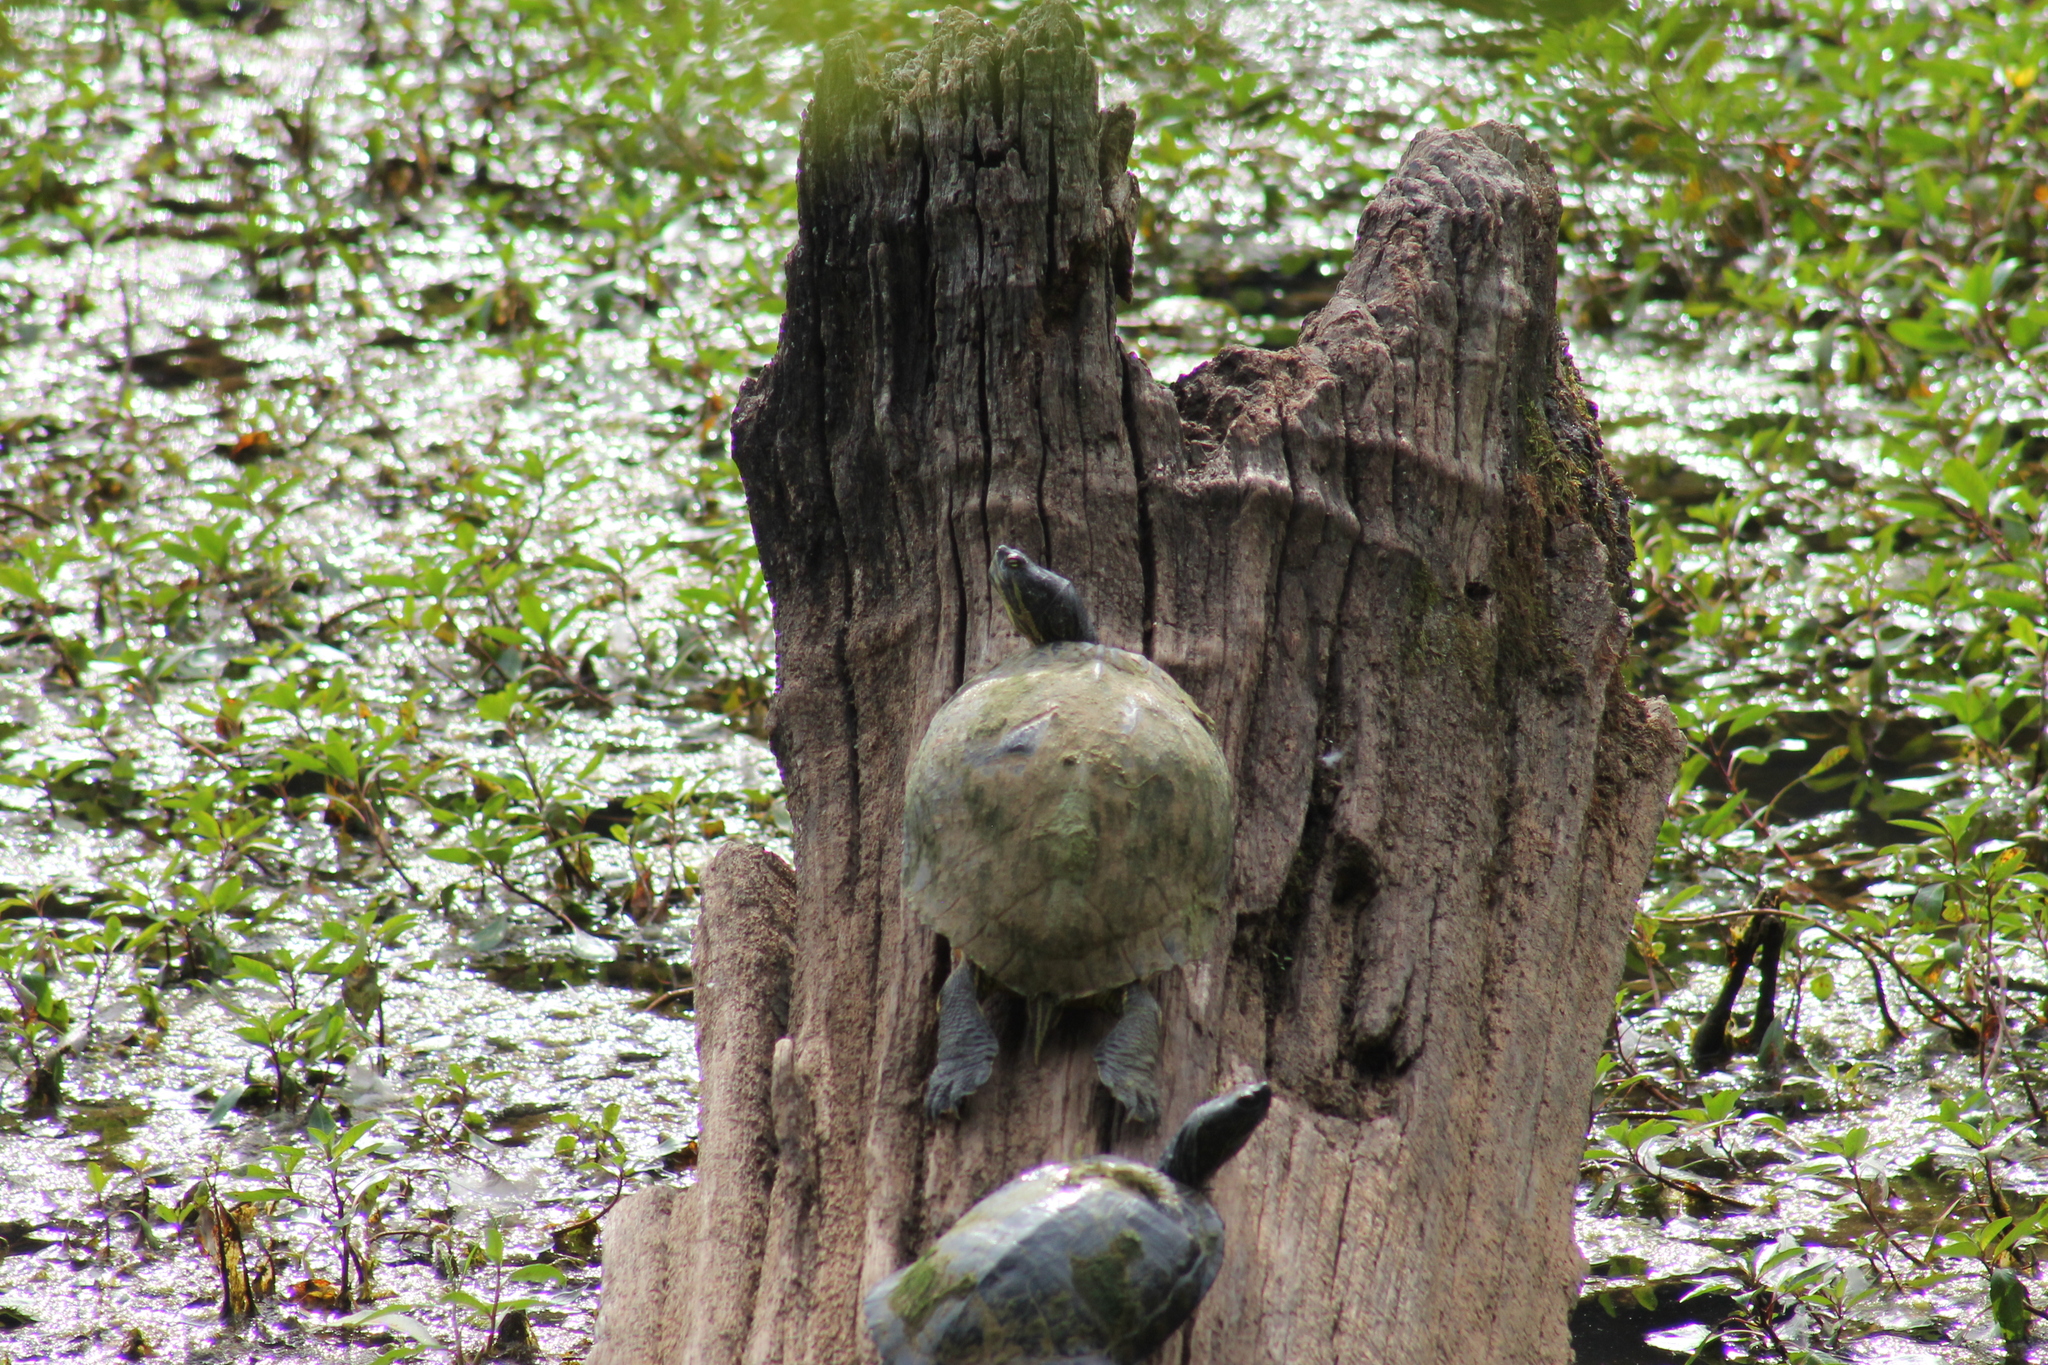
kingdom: Animalia
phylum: Chordata
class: Testudines
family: Emydidae
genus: Trachemys
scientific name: Trachemys scripta
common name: Slider
